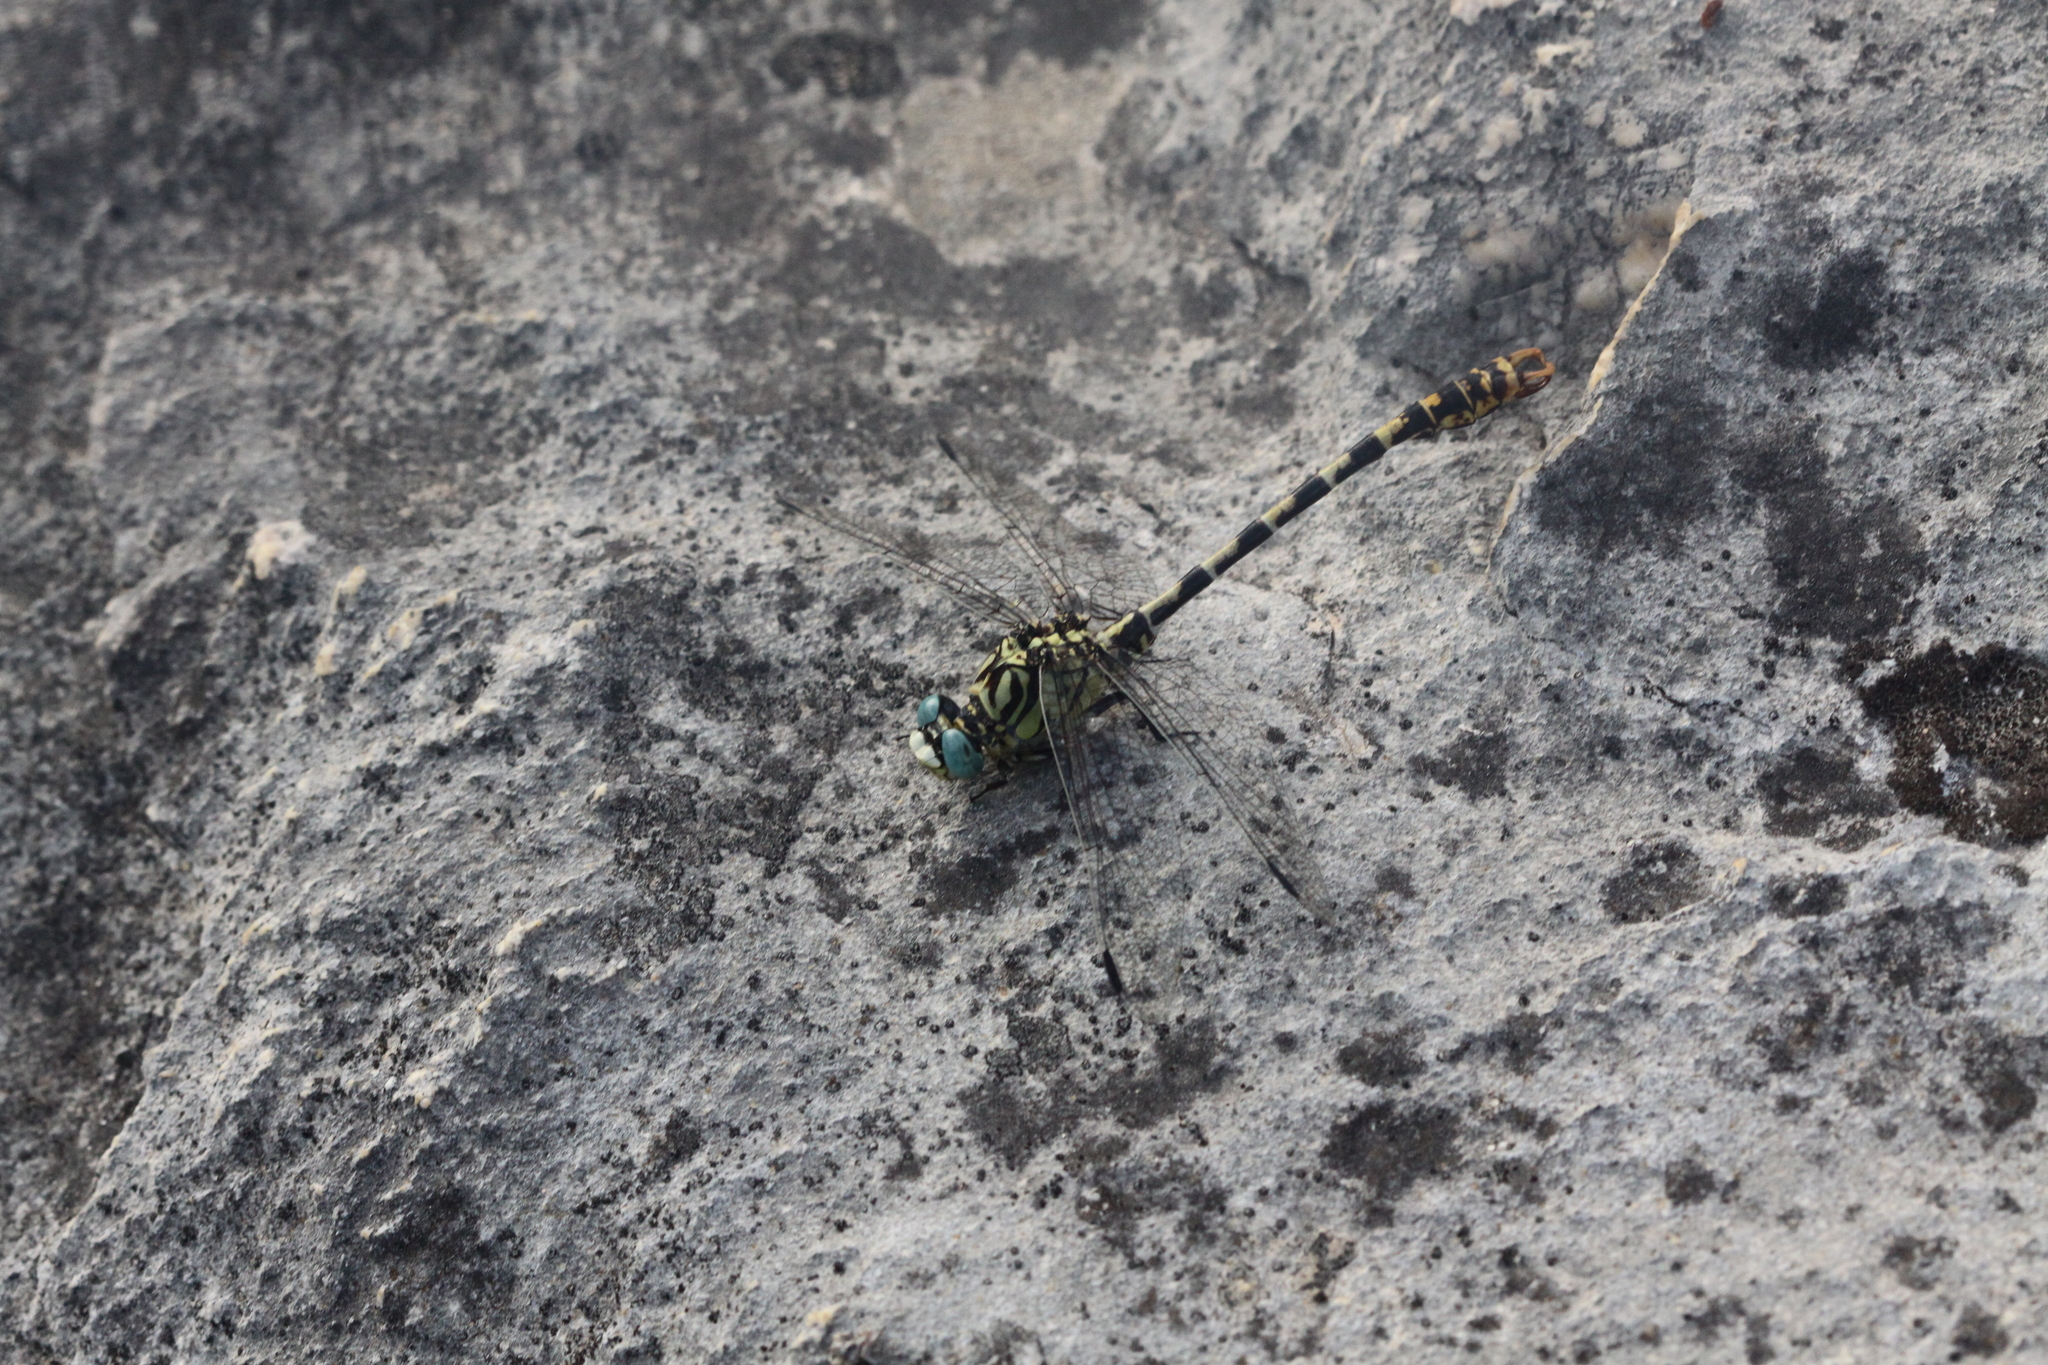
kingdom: Animalia
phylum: Arthropoda
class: Insecta
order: Odonata
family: Gomphidae
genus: Onychogomphus
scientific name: Onychogomphus forcipatus
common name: Small pincertail
